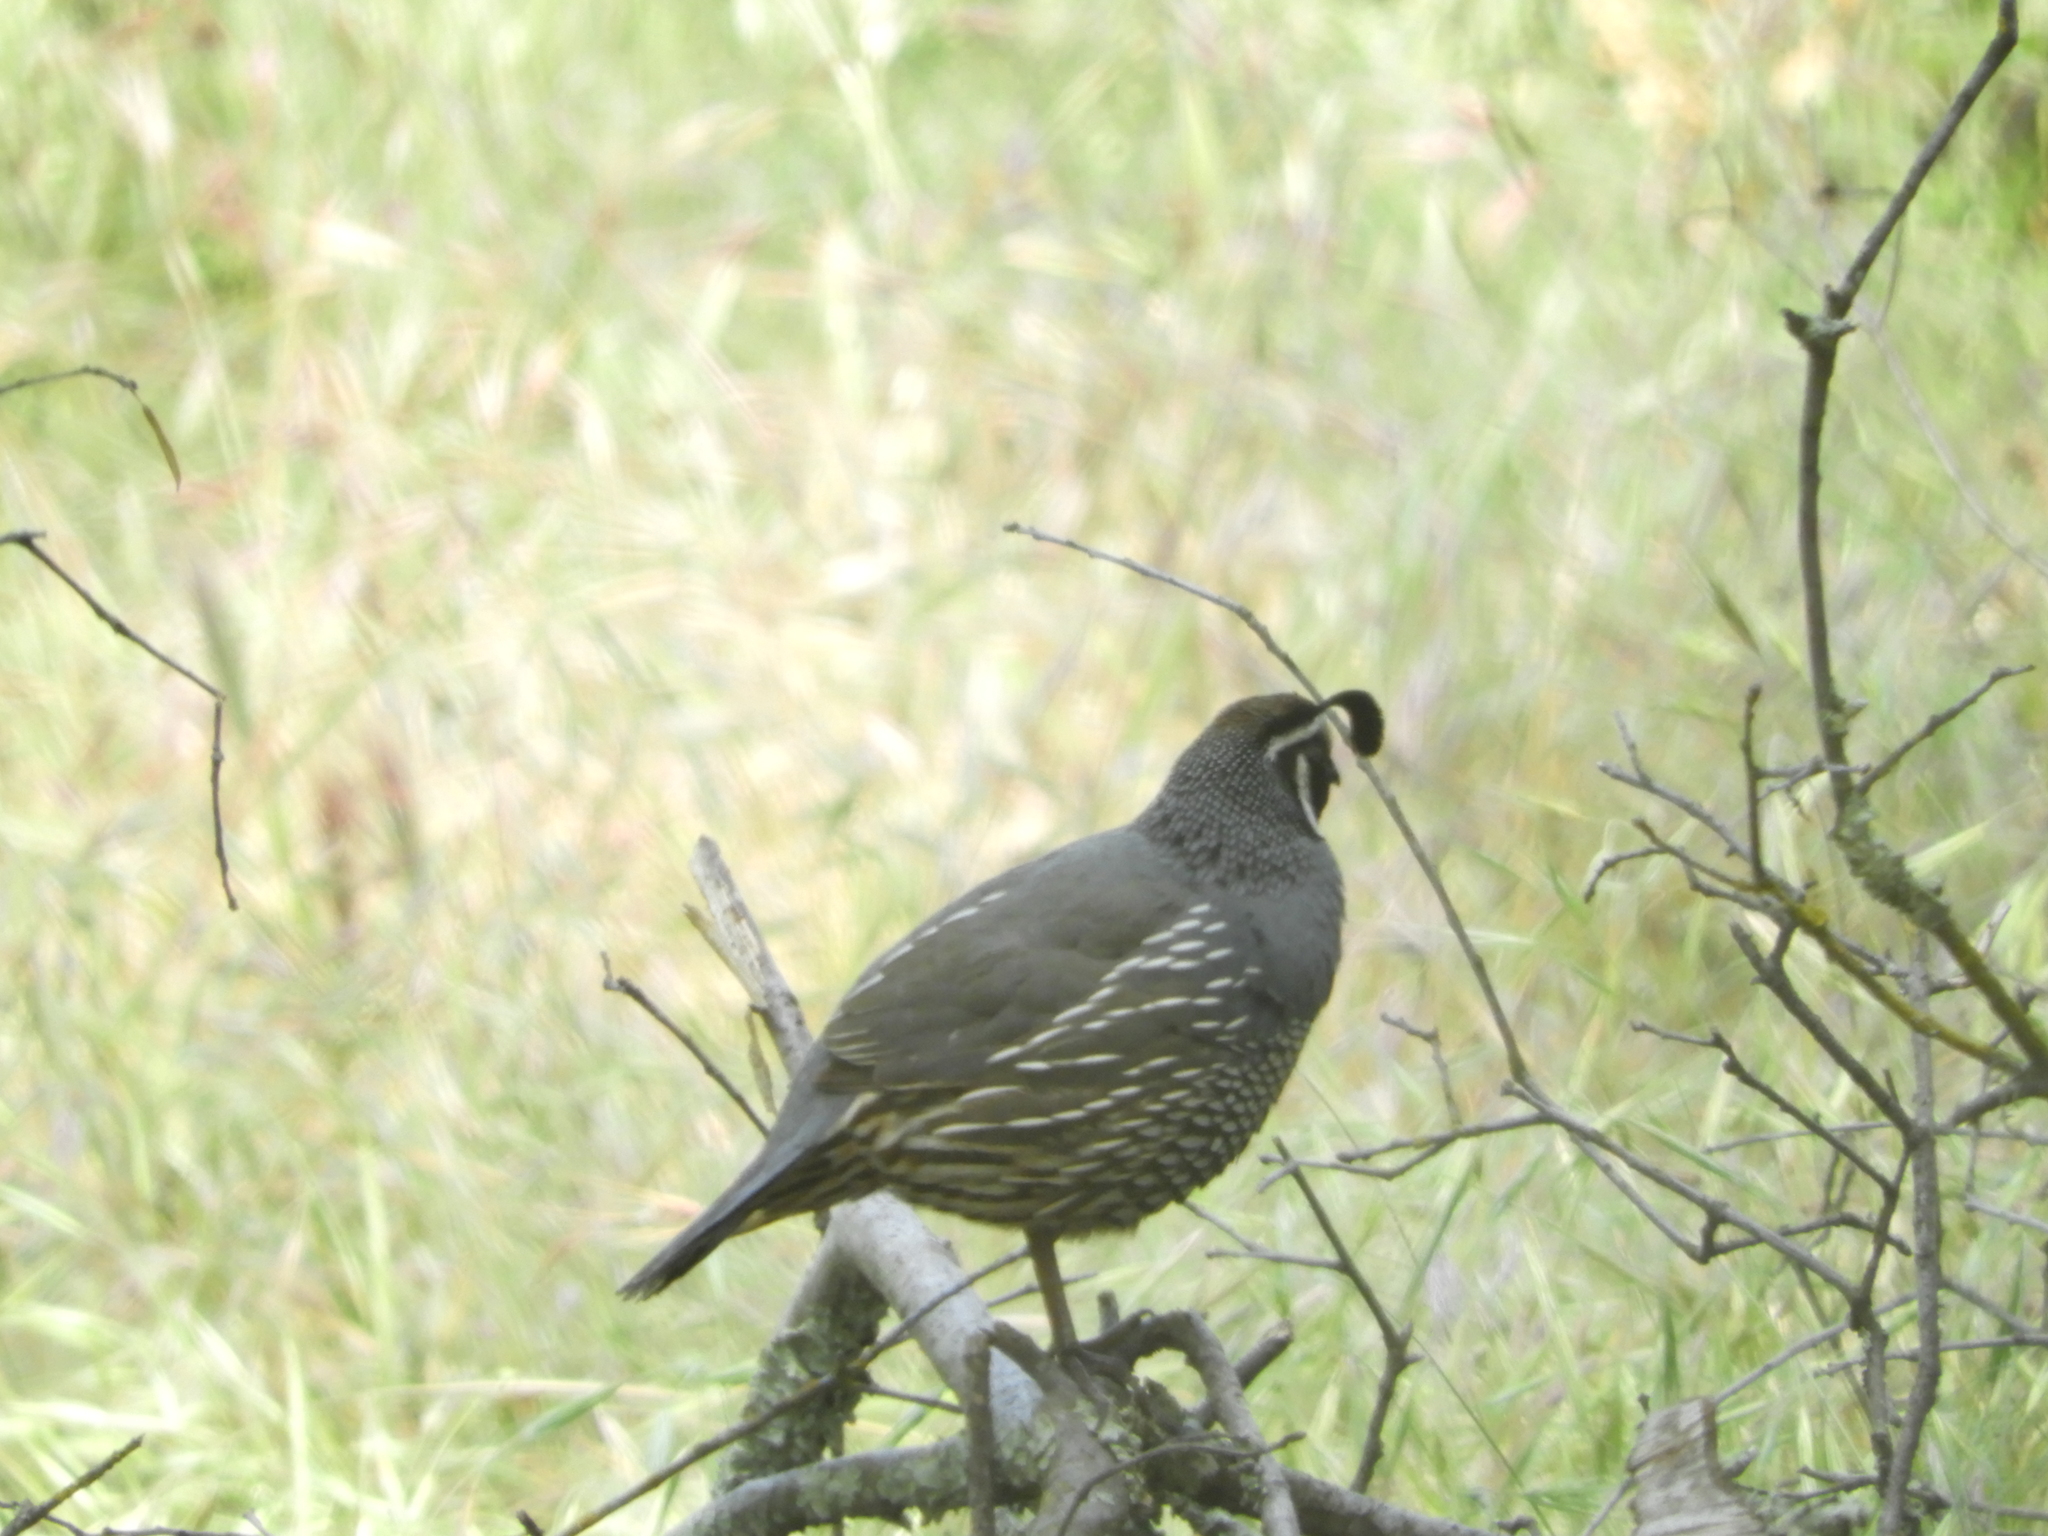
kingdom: Animalia
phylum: Chordata
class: Aves
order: Galliformes
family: Odontophoridae
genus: Callipepla
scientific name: Callipepla californica
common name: California quail
